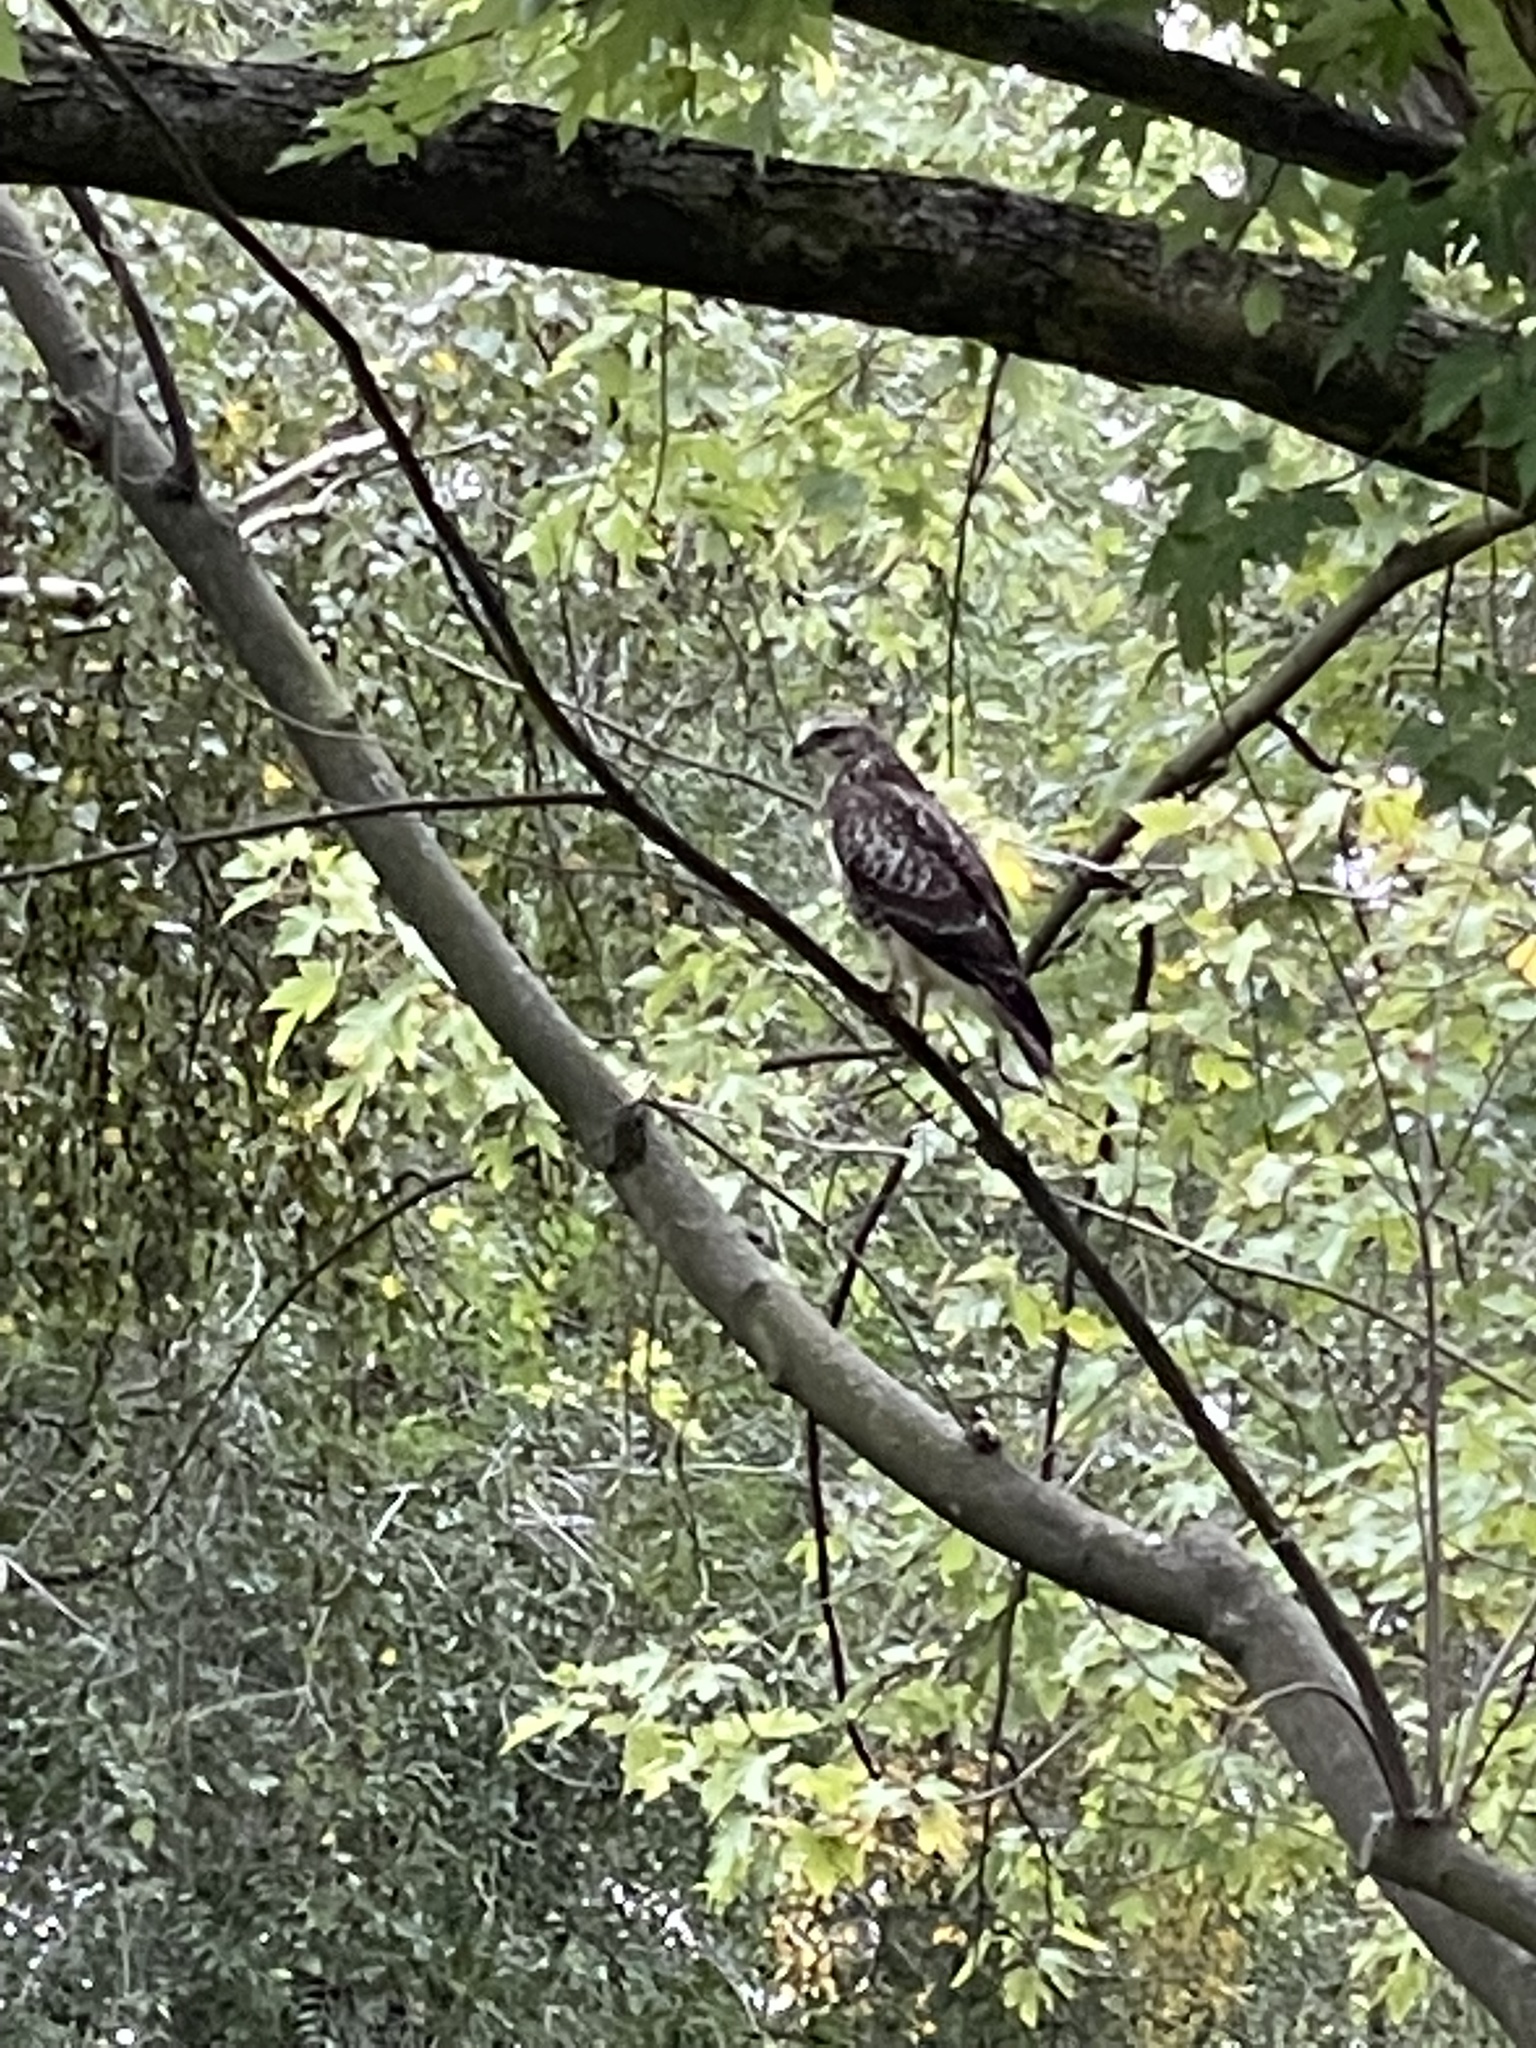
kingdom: Animalia
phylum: Chordata
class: Aves
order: Accipitriformes
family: Accipitridae
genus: Buteo
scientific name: Buteo buteo
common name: Common buzzard
